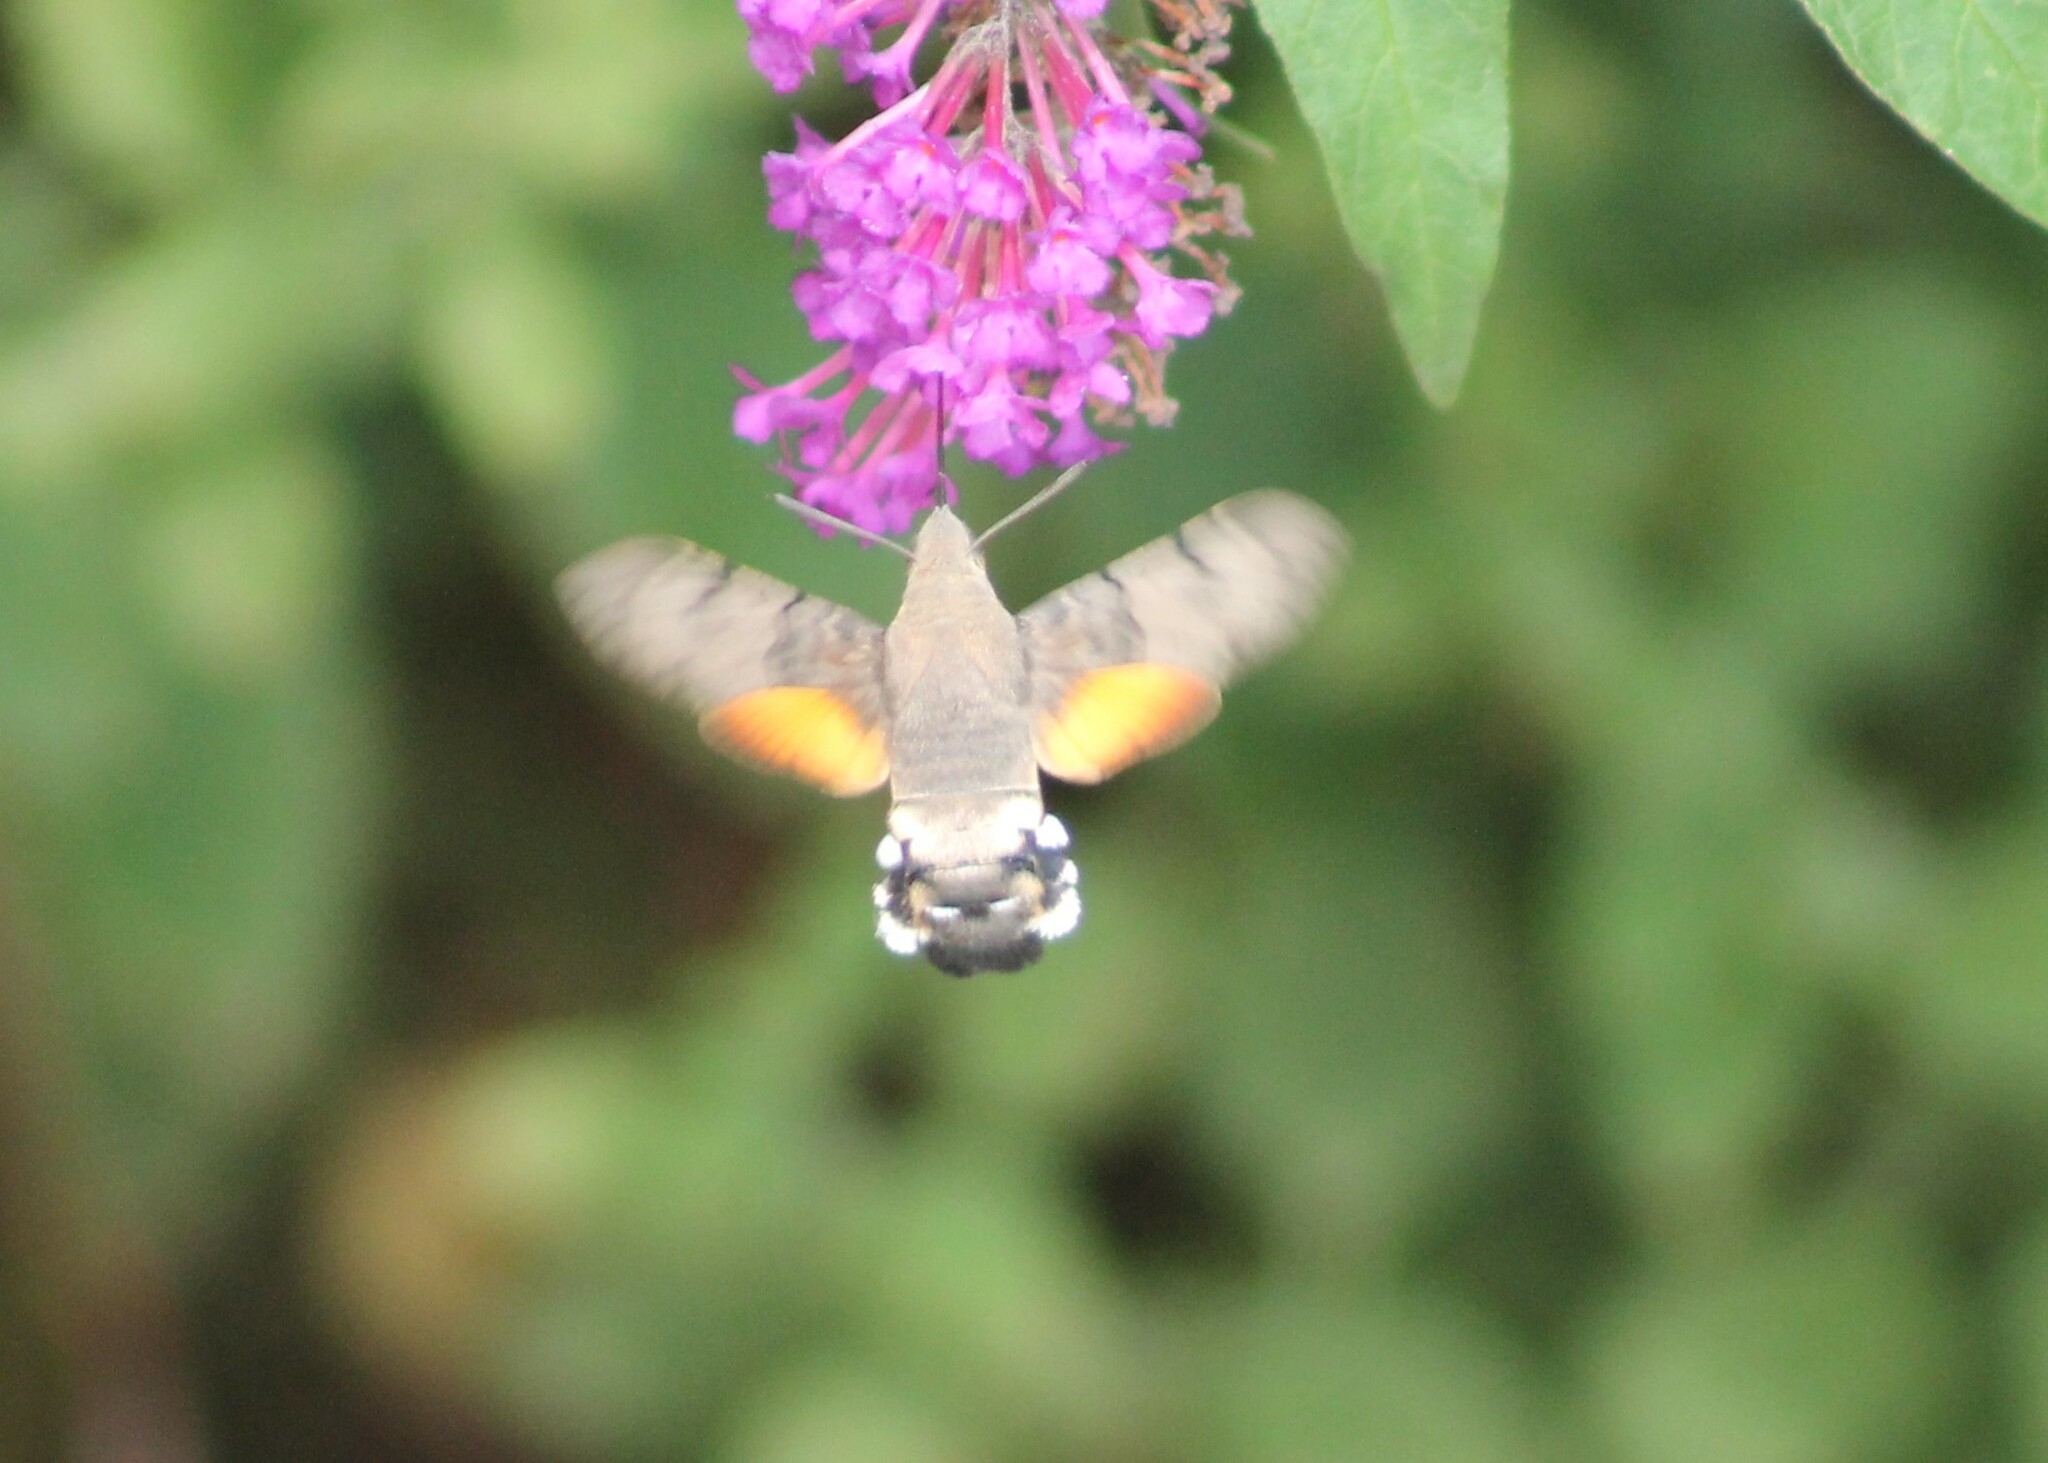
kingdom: Animalia
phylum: Arthropoda
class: Insecta
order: Lepidoptera
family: Sphingidae
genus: Macroglossum
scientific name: Macroglossum stellatarum
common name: Humming-bird hawk-moth
